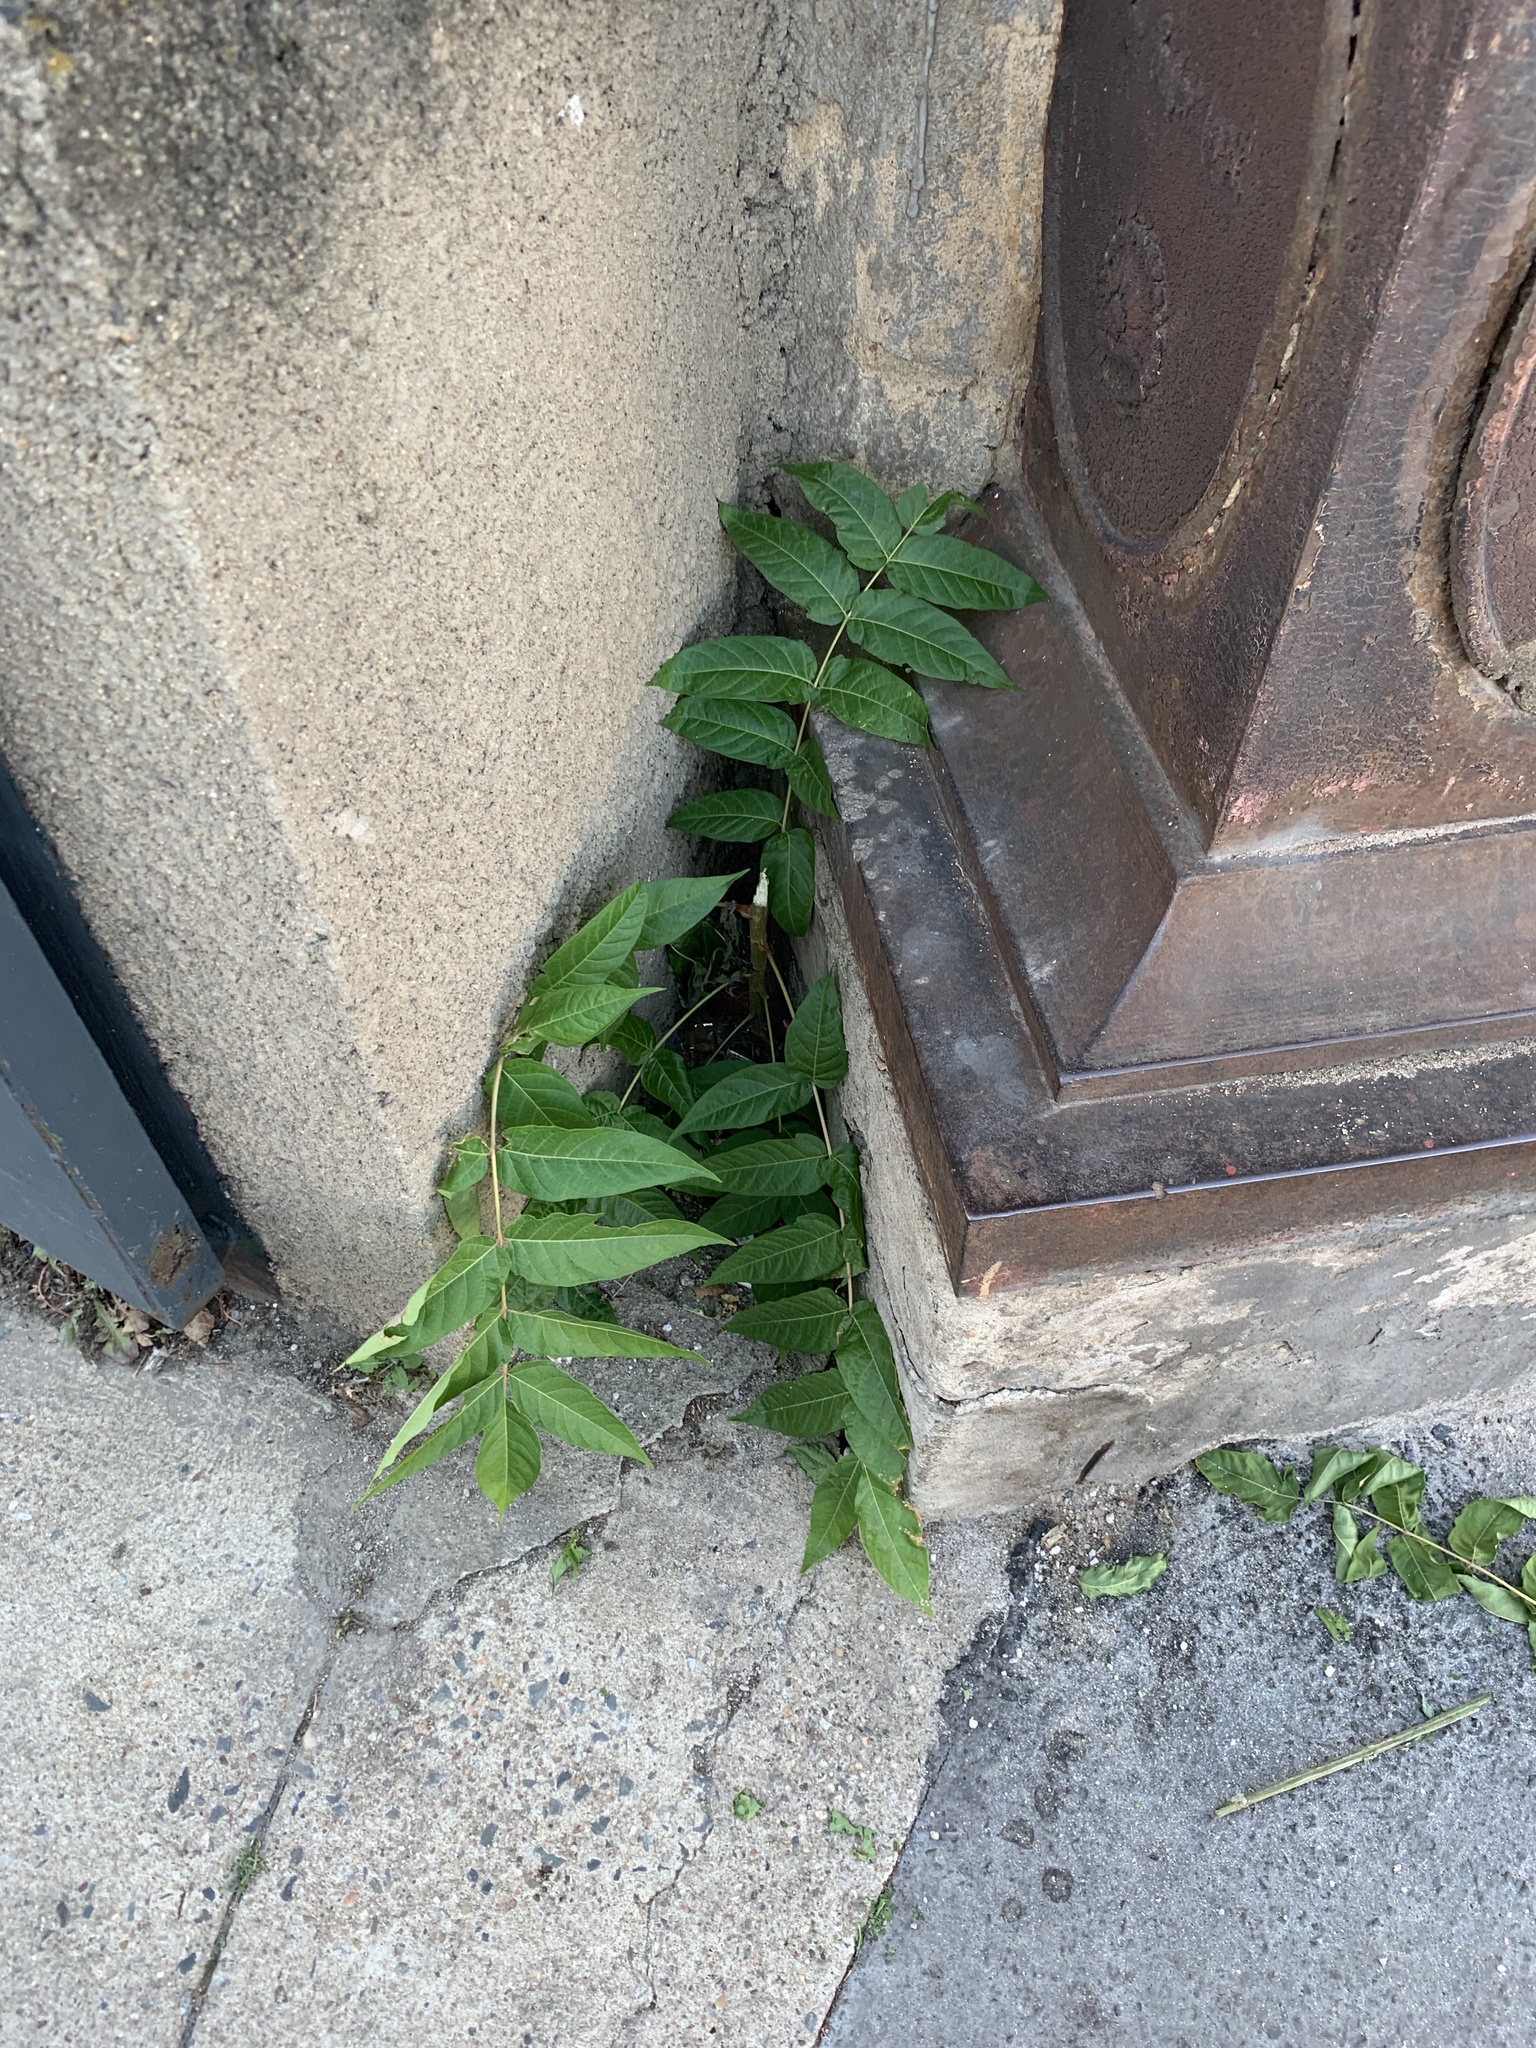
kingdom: Plantae
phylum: Tracheophyta
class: Magnoliopsida
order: Sapindales
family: Simaroubaceae
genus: Ailanthus
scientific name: Ailanthus altissima
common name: Tree-of-heaven
